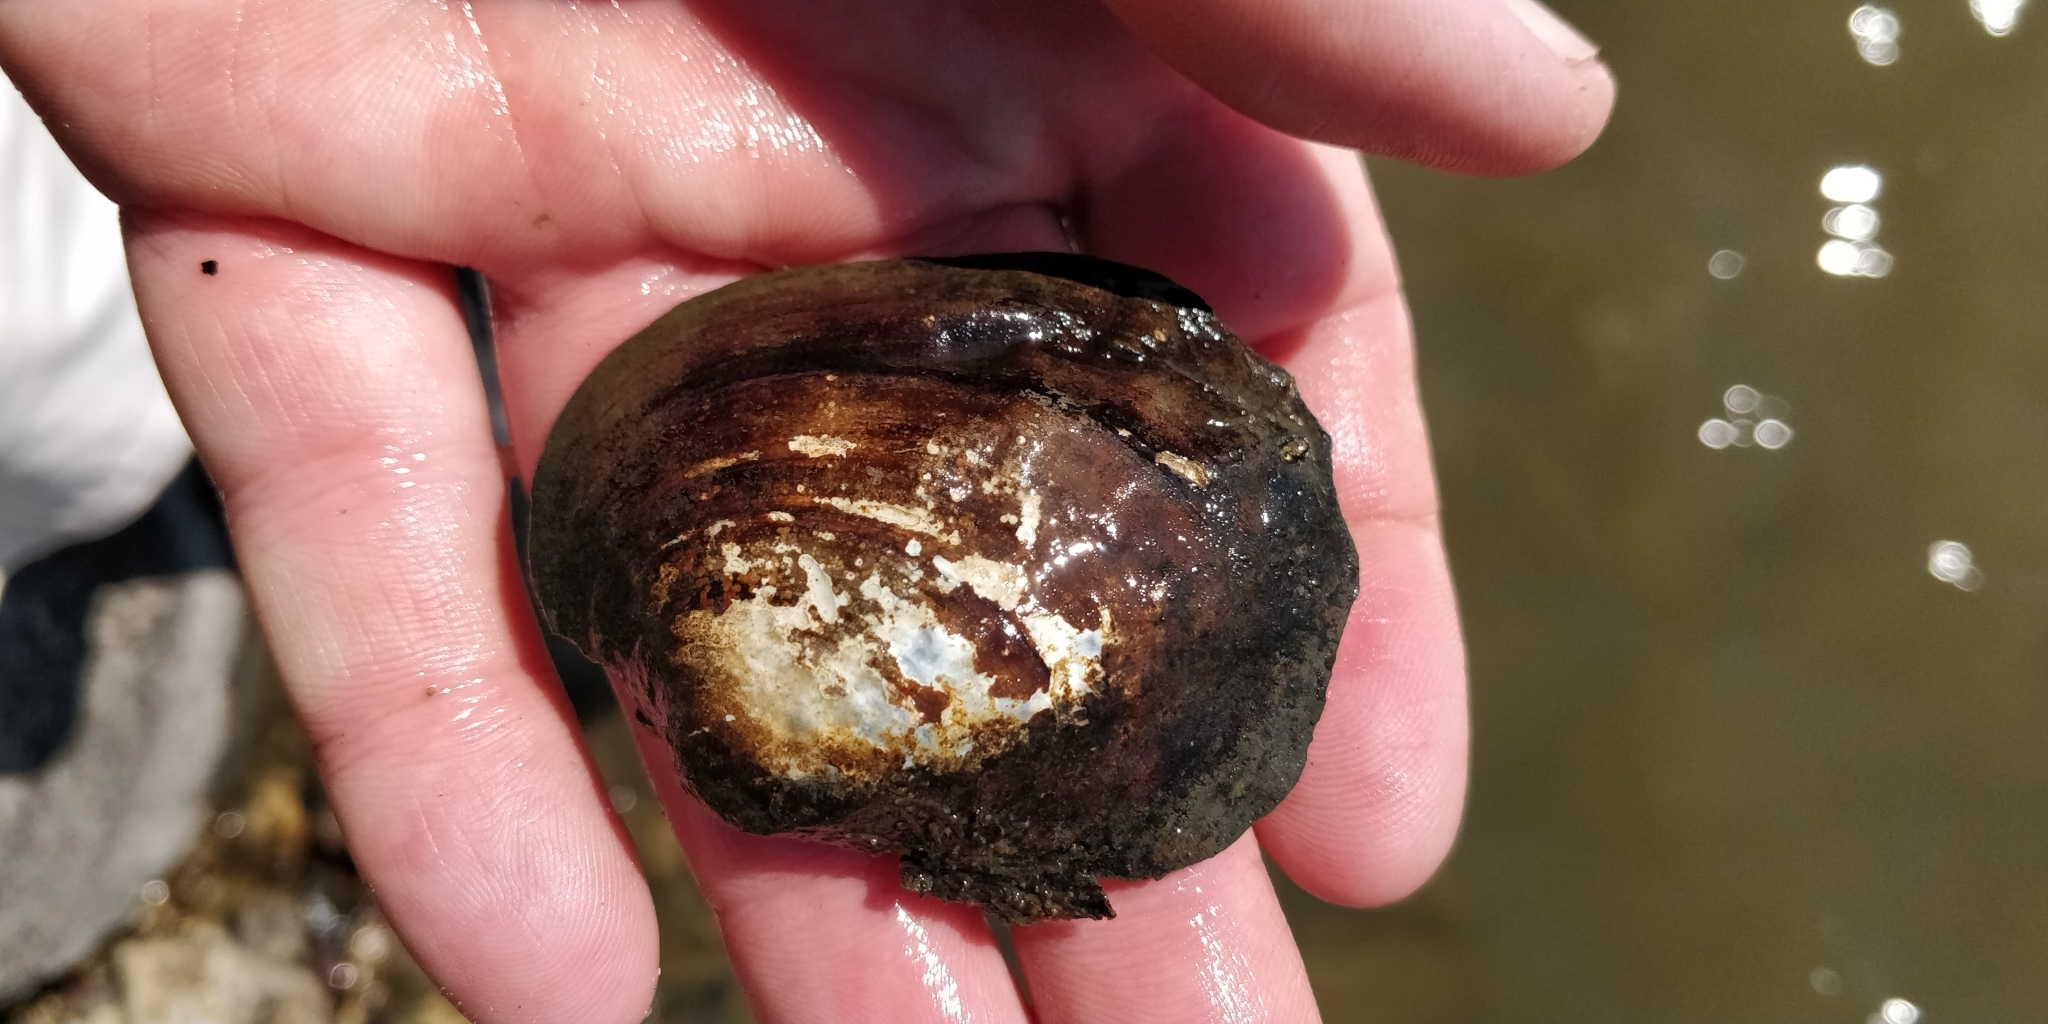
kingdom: Animalia
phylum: Mollusca
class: Bivalvia
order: Unionida
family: Unionidae
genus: Amblema
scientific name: Amblema plicata
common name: Threeridge
